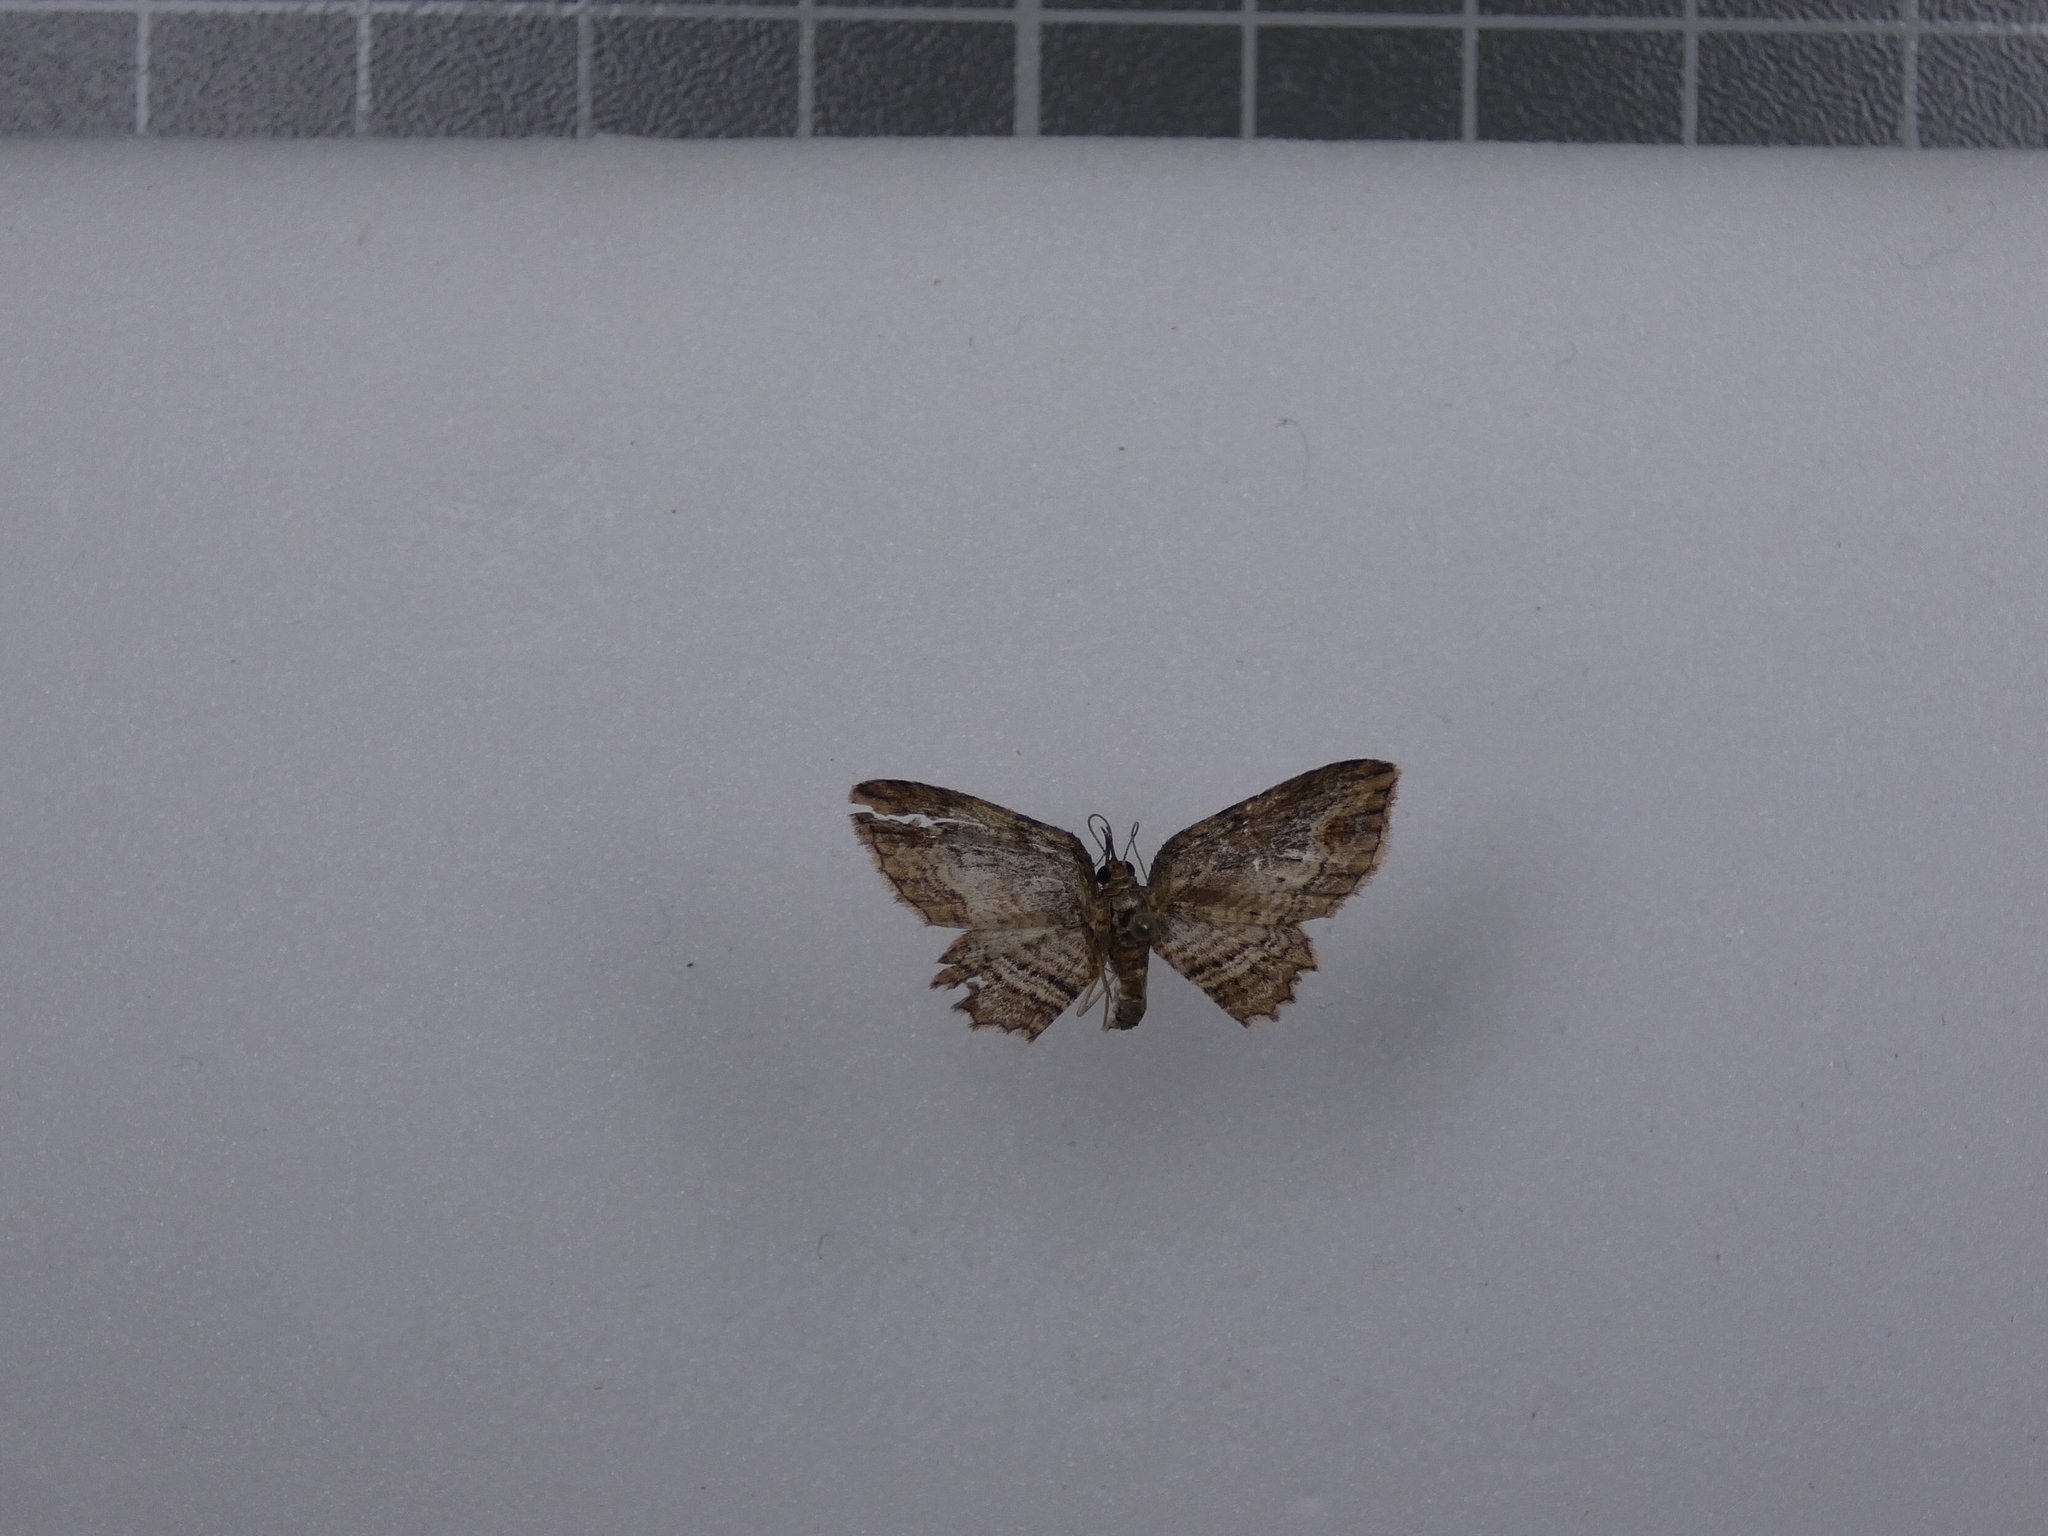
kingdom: Animalia
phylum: Arthropoda
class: Insecta
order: Lepidoptera
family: Geometridae
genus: Chloroclystis
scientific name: Chloroclystis filata
